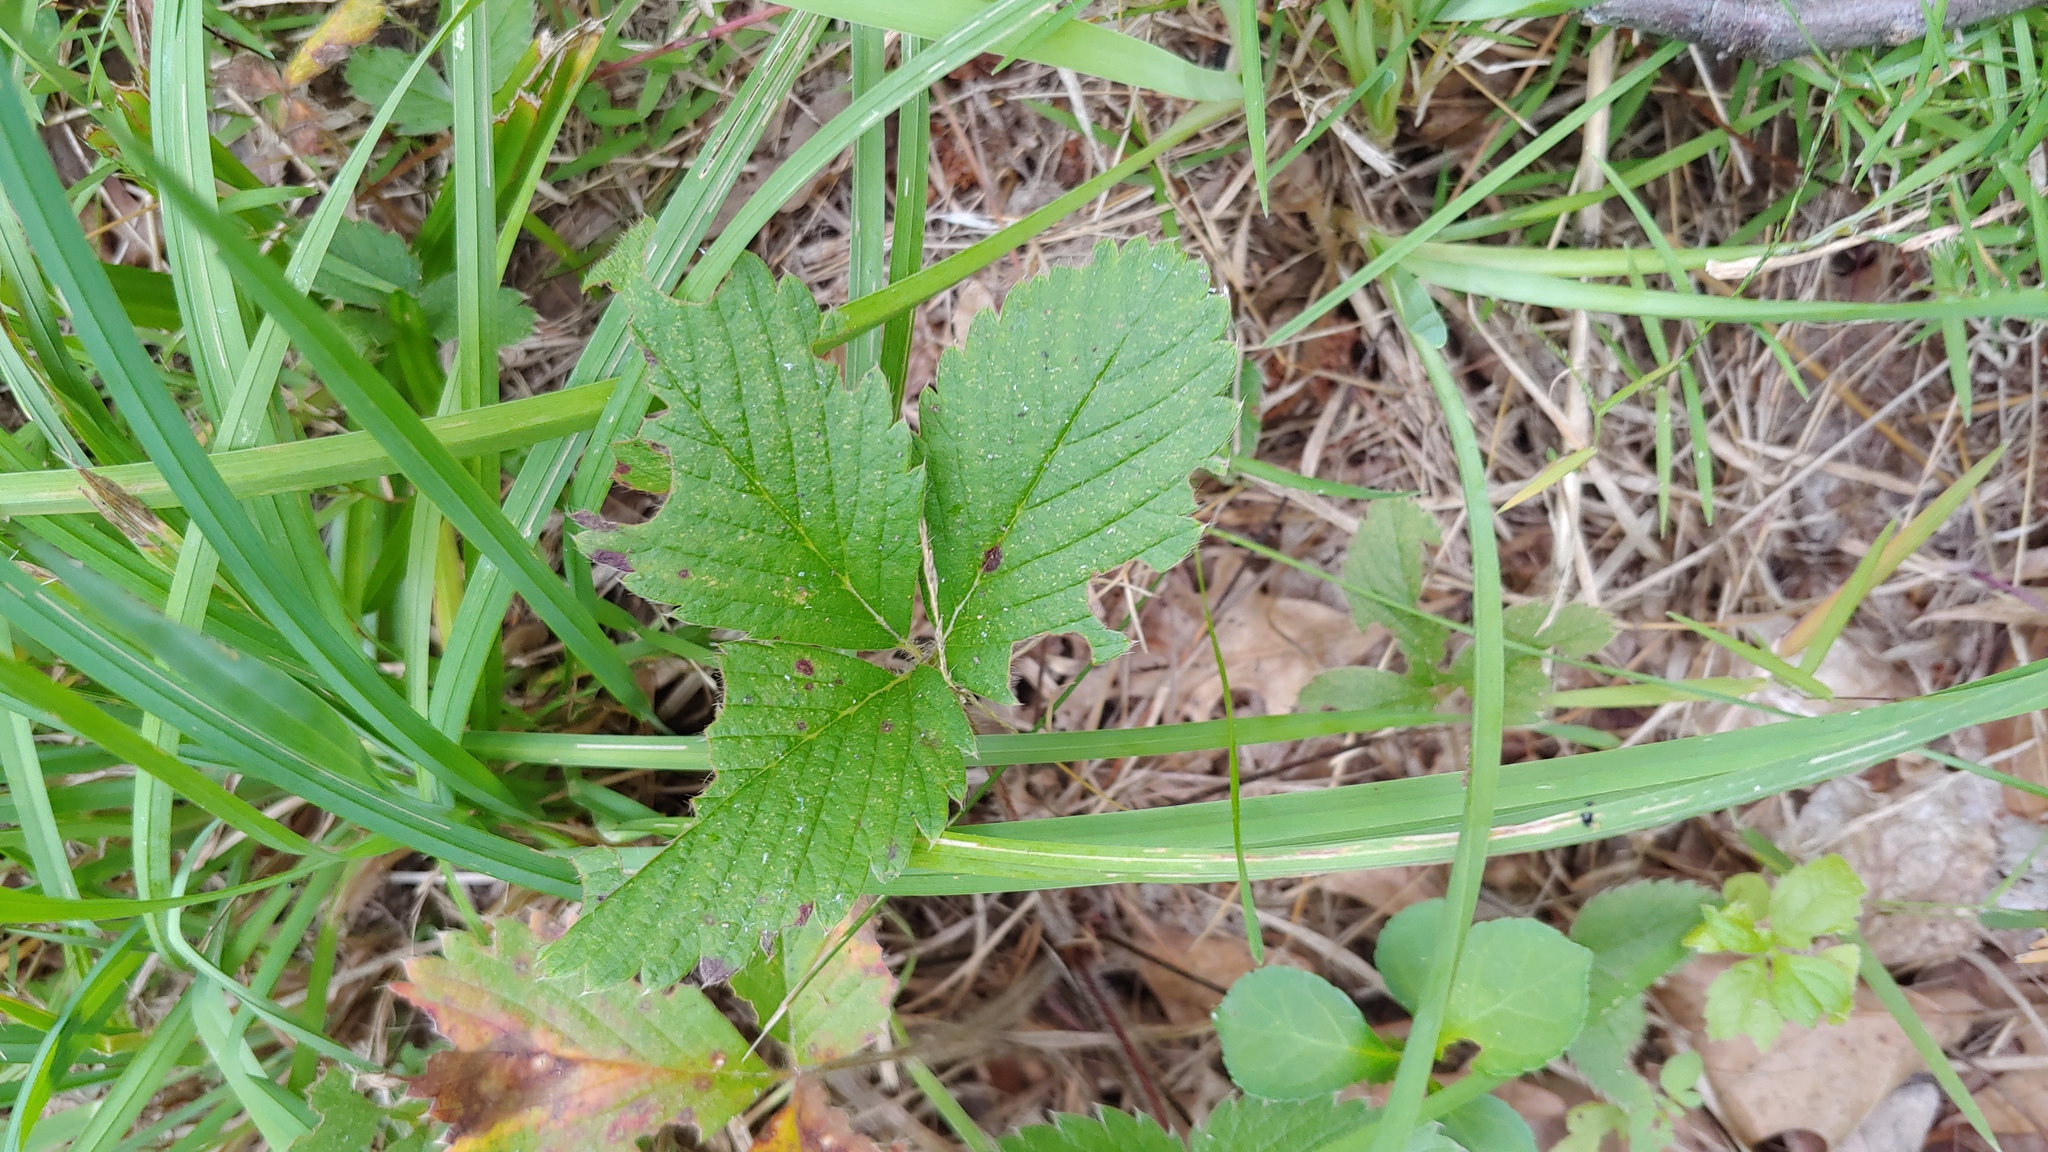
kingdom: Plantae
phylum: Tracheophyta
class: Magnoliopsida
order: Rosales
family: Rosaceae
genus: Fragaria
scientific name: Fragaria virginiana
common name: Thickleaved wild strawberry
